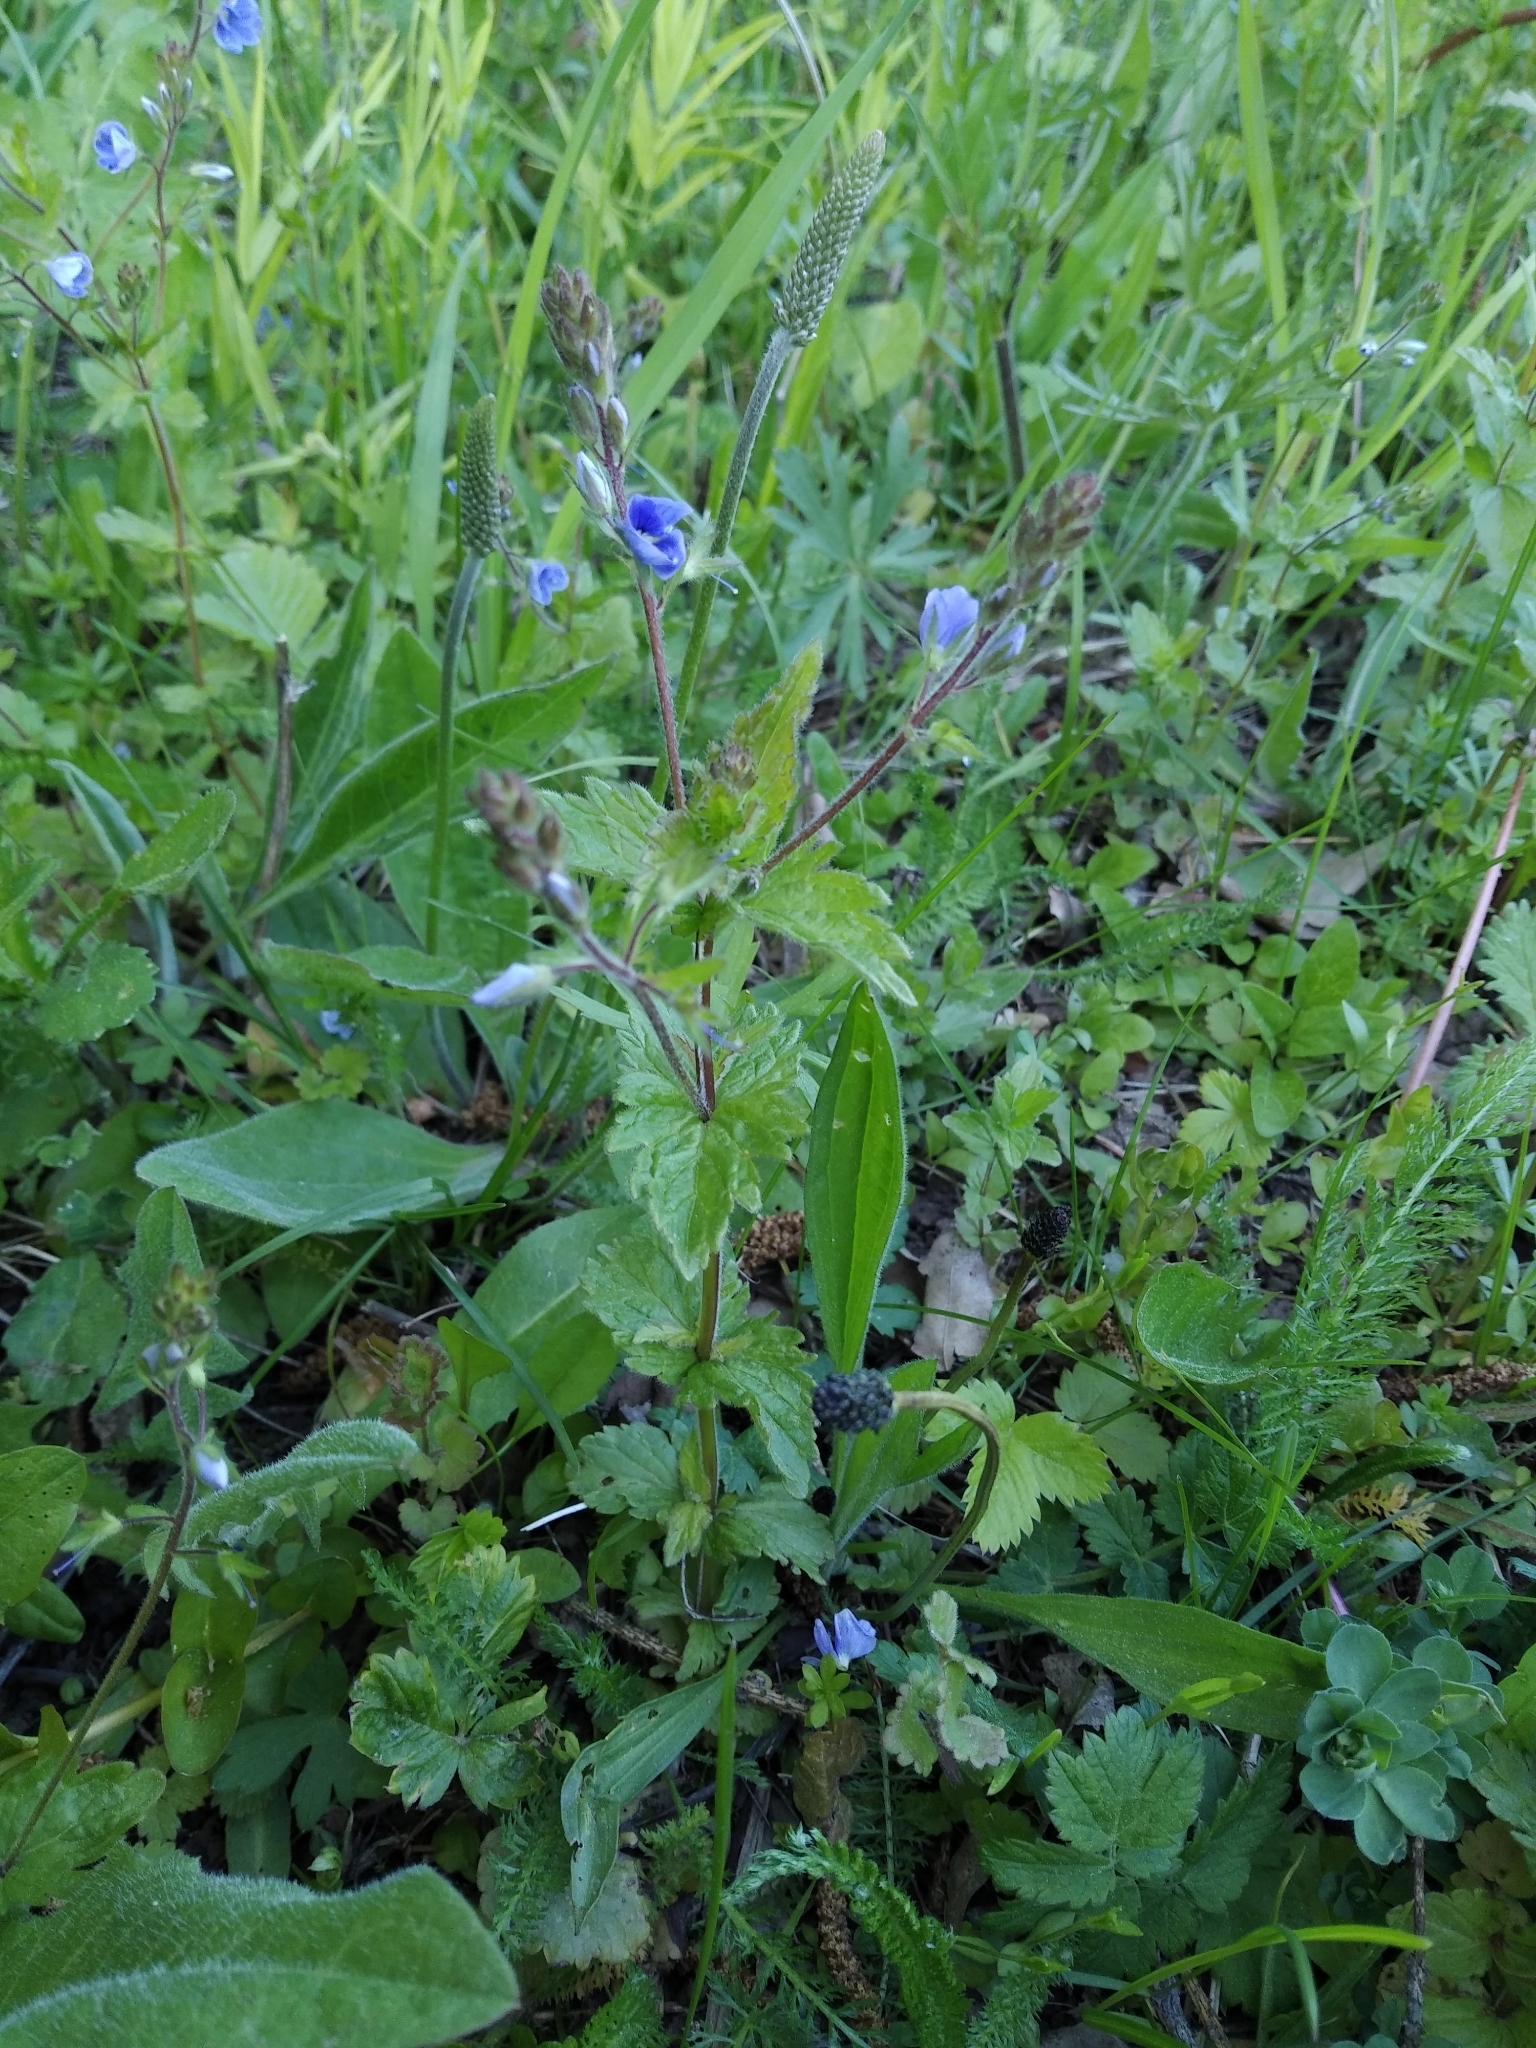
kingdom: Plantae
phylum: Tracheophyta
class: Magnoliopsida
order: Lamiales
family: Plantaginaceae
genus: Veronica
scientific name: Veronica chamaedrys
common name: Germander speedwell
